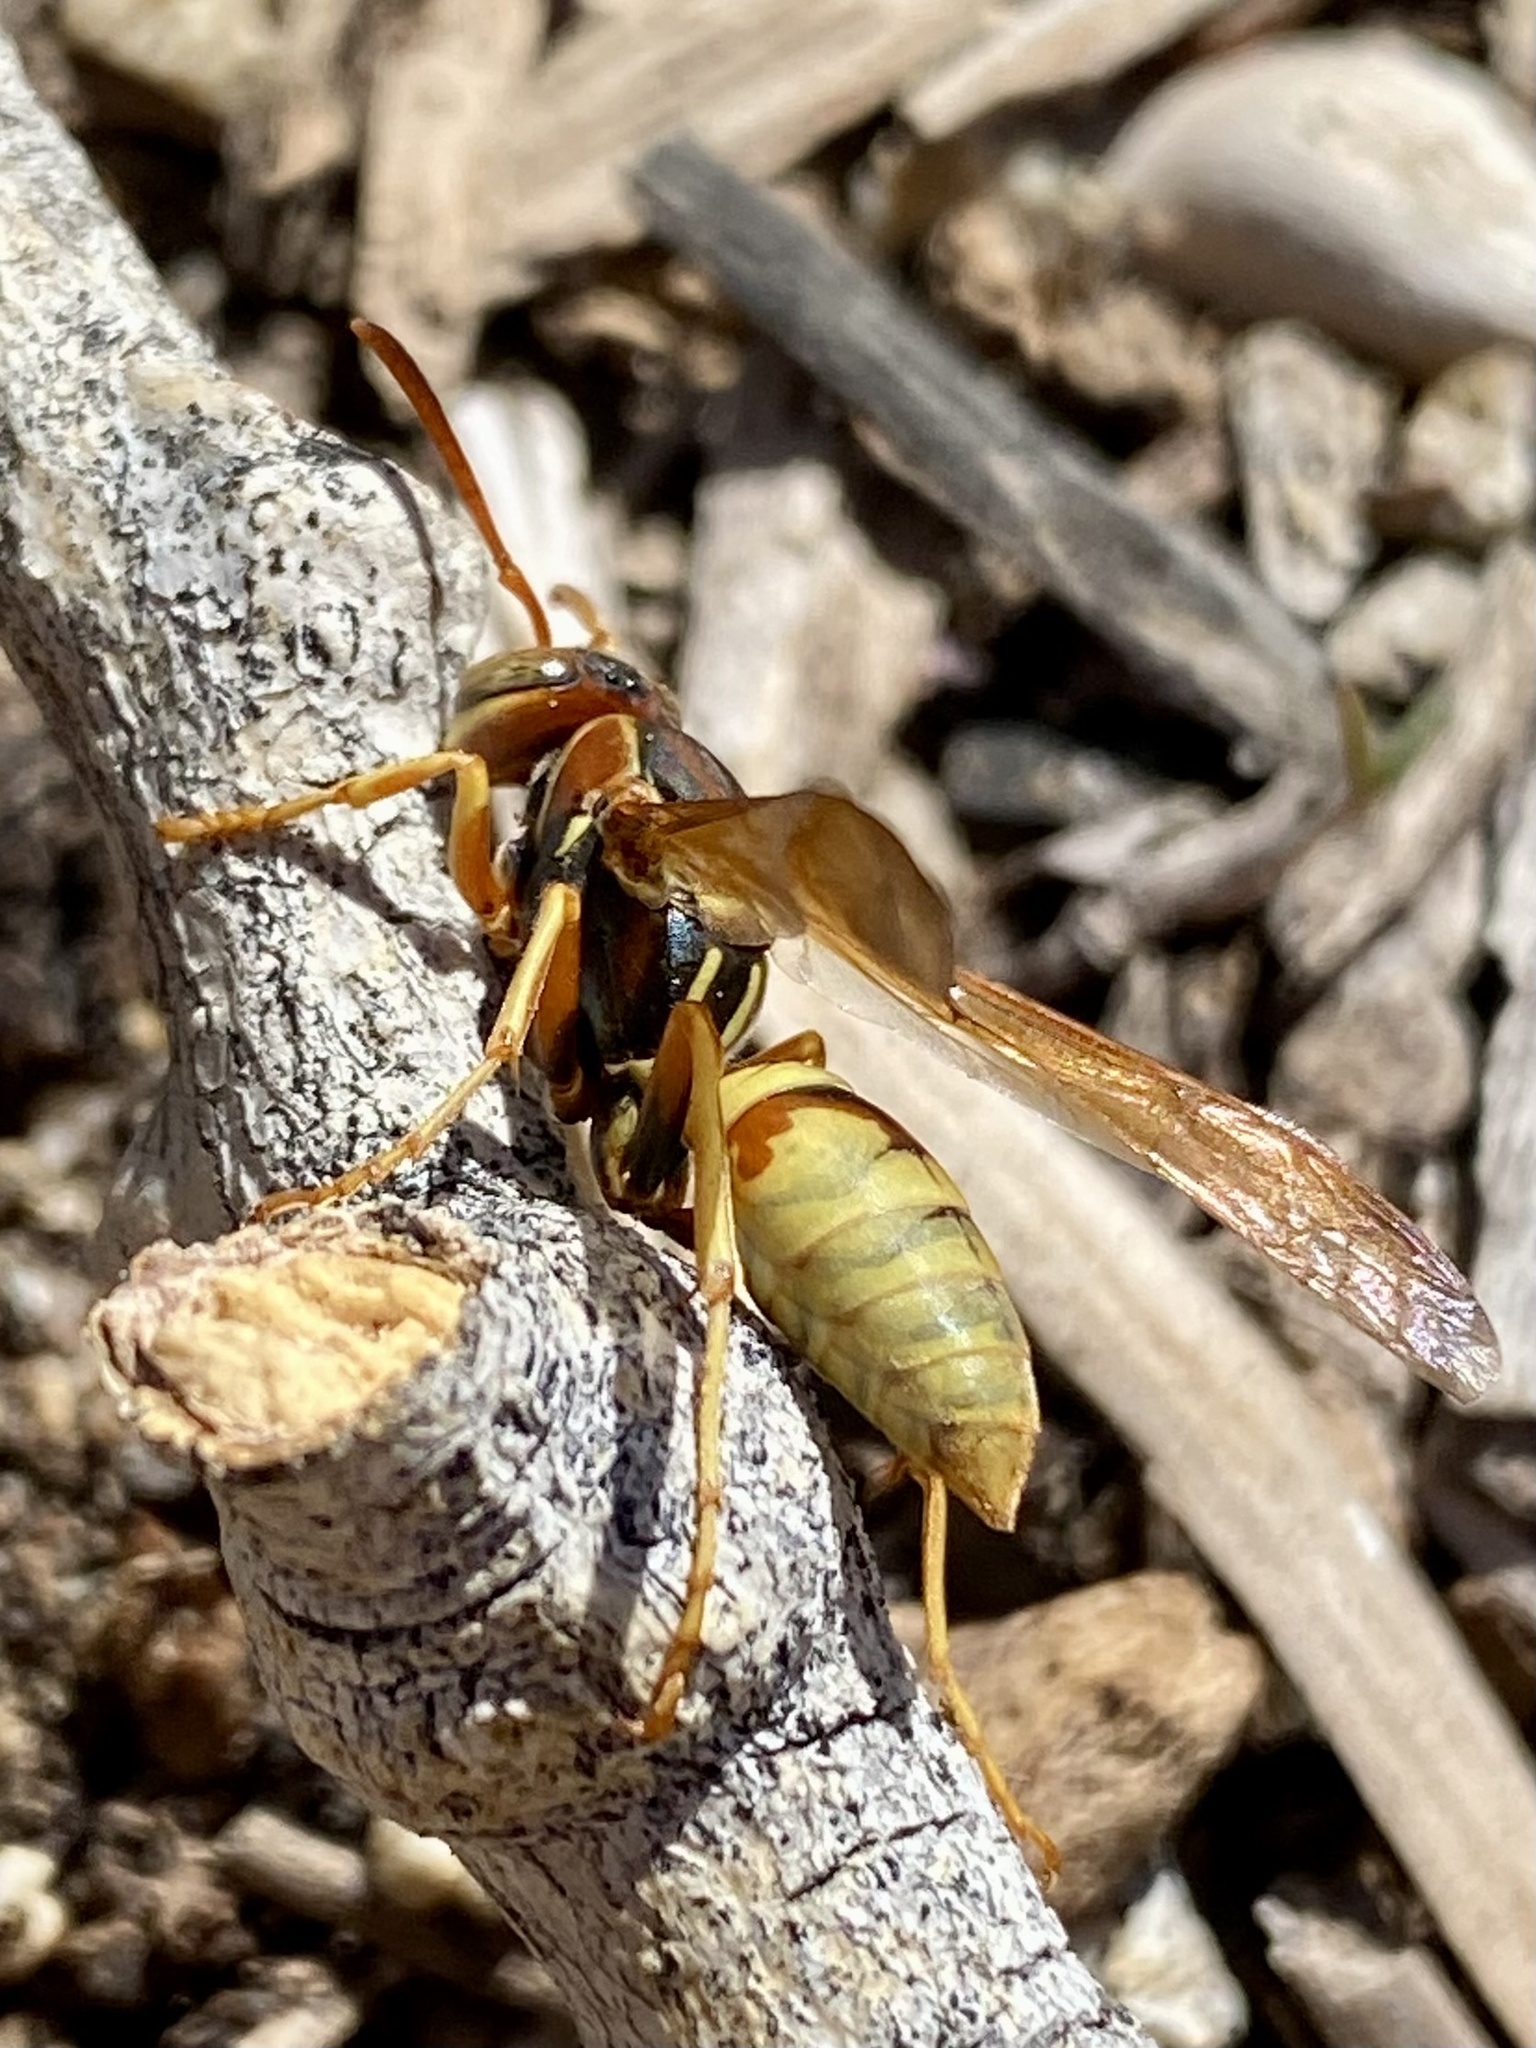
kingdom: Animalia
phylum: Arthropoda
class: Insecta
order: Hymenoptera
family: Eumenidae
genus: Polistes
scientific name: Polistes aurifer
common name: Paper wasp
